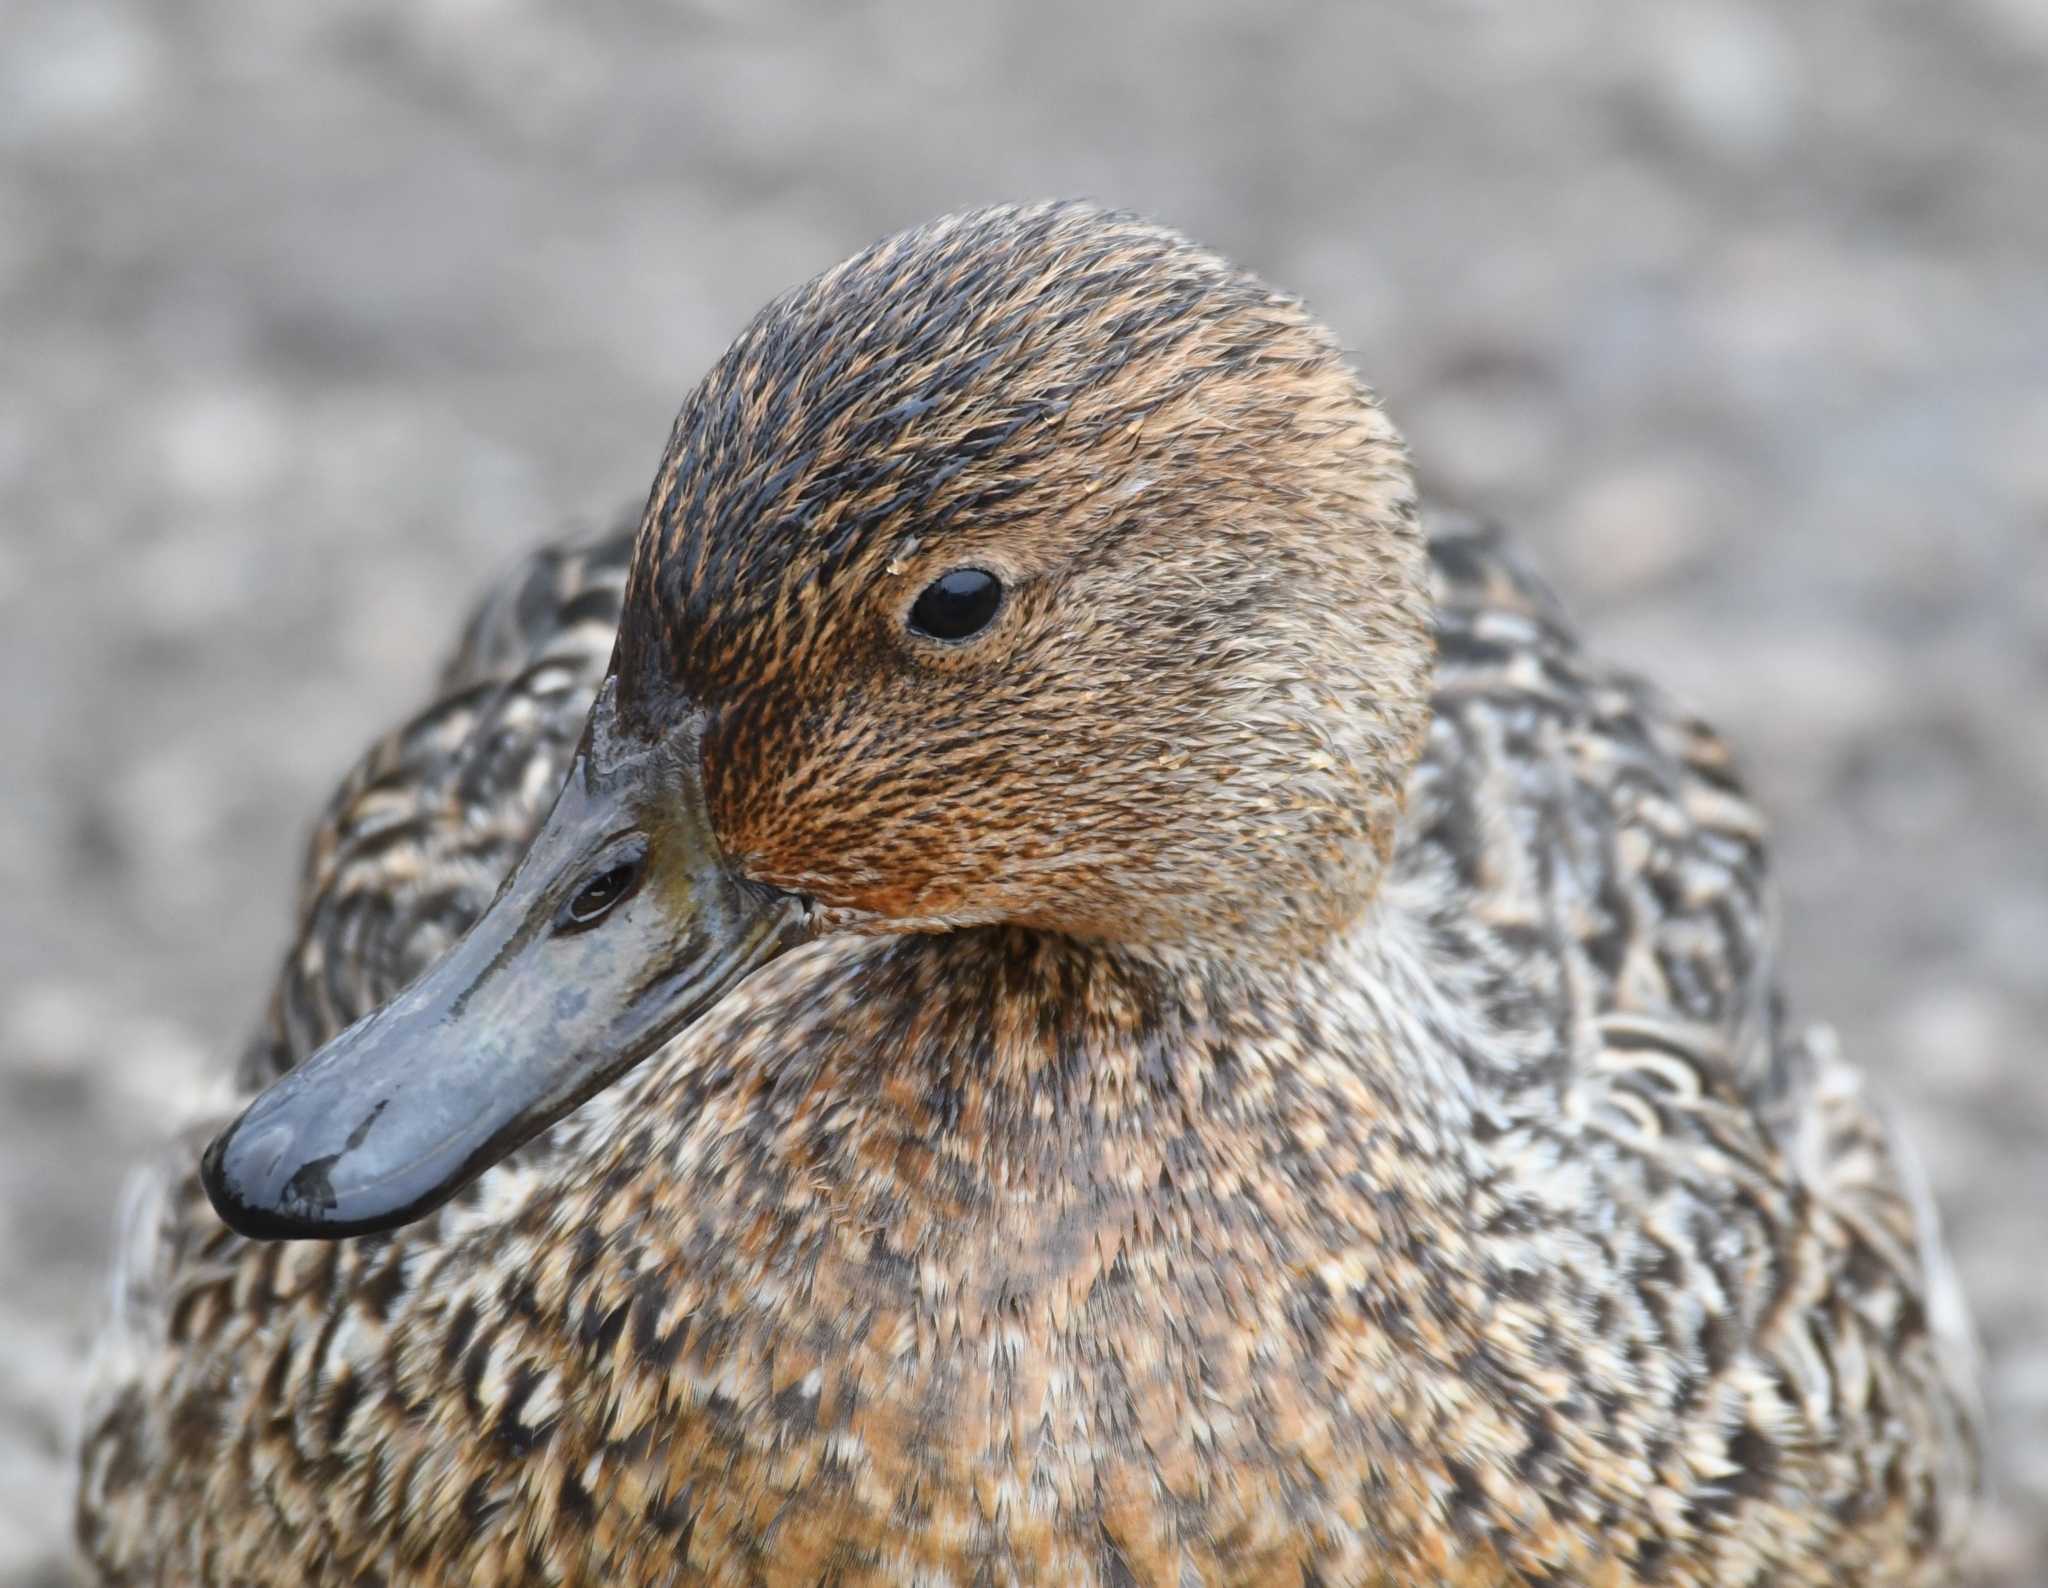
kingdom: Animalia
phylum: Chordata
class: Aves
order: Anseriformes
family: Anatidae
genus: Anas
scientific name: Anas acuta
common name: Northern pintail
